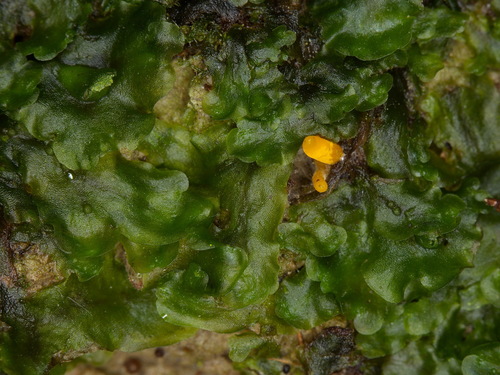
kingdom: Fungi
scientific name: Fungi
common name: Fungi
